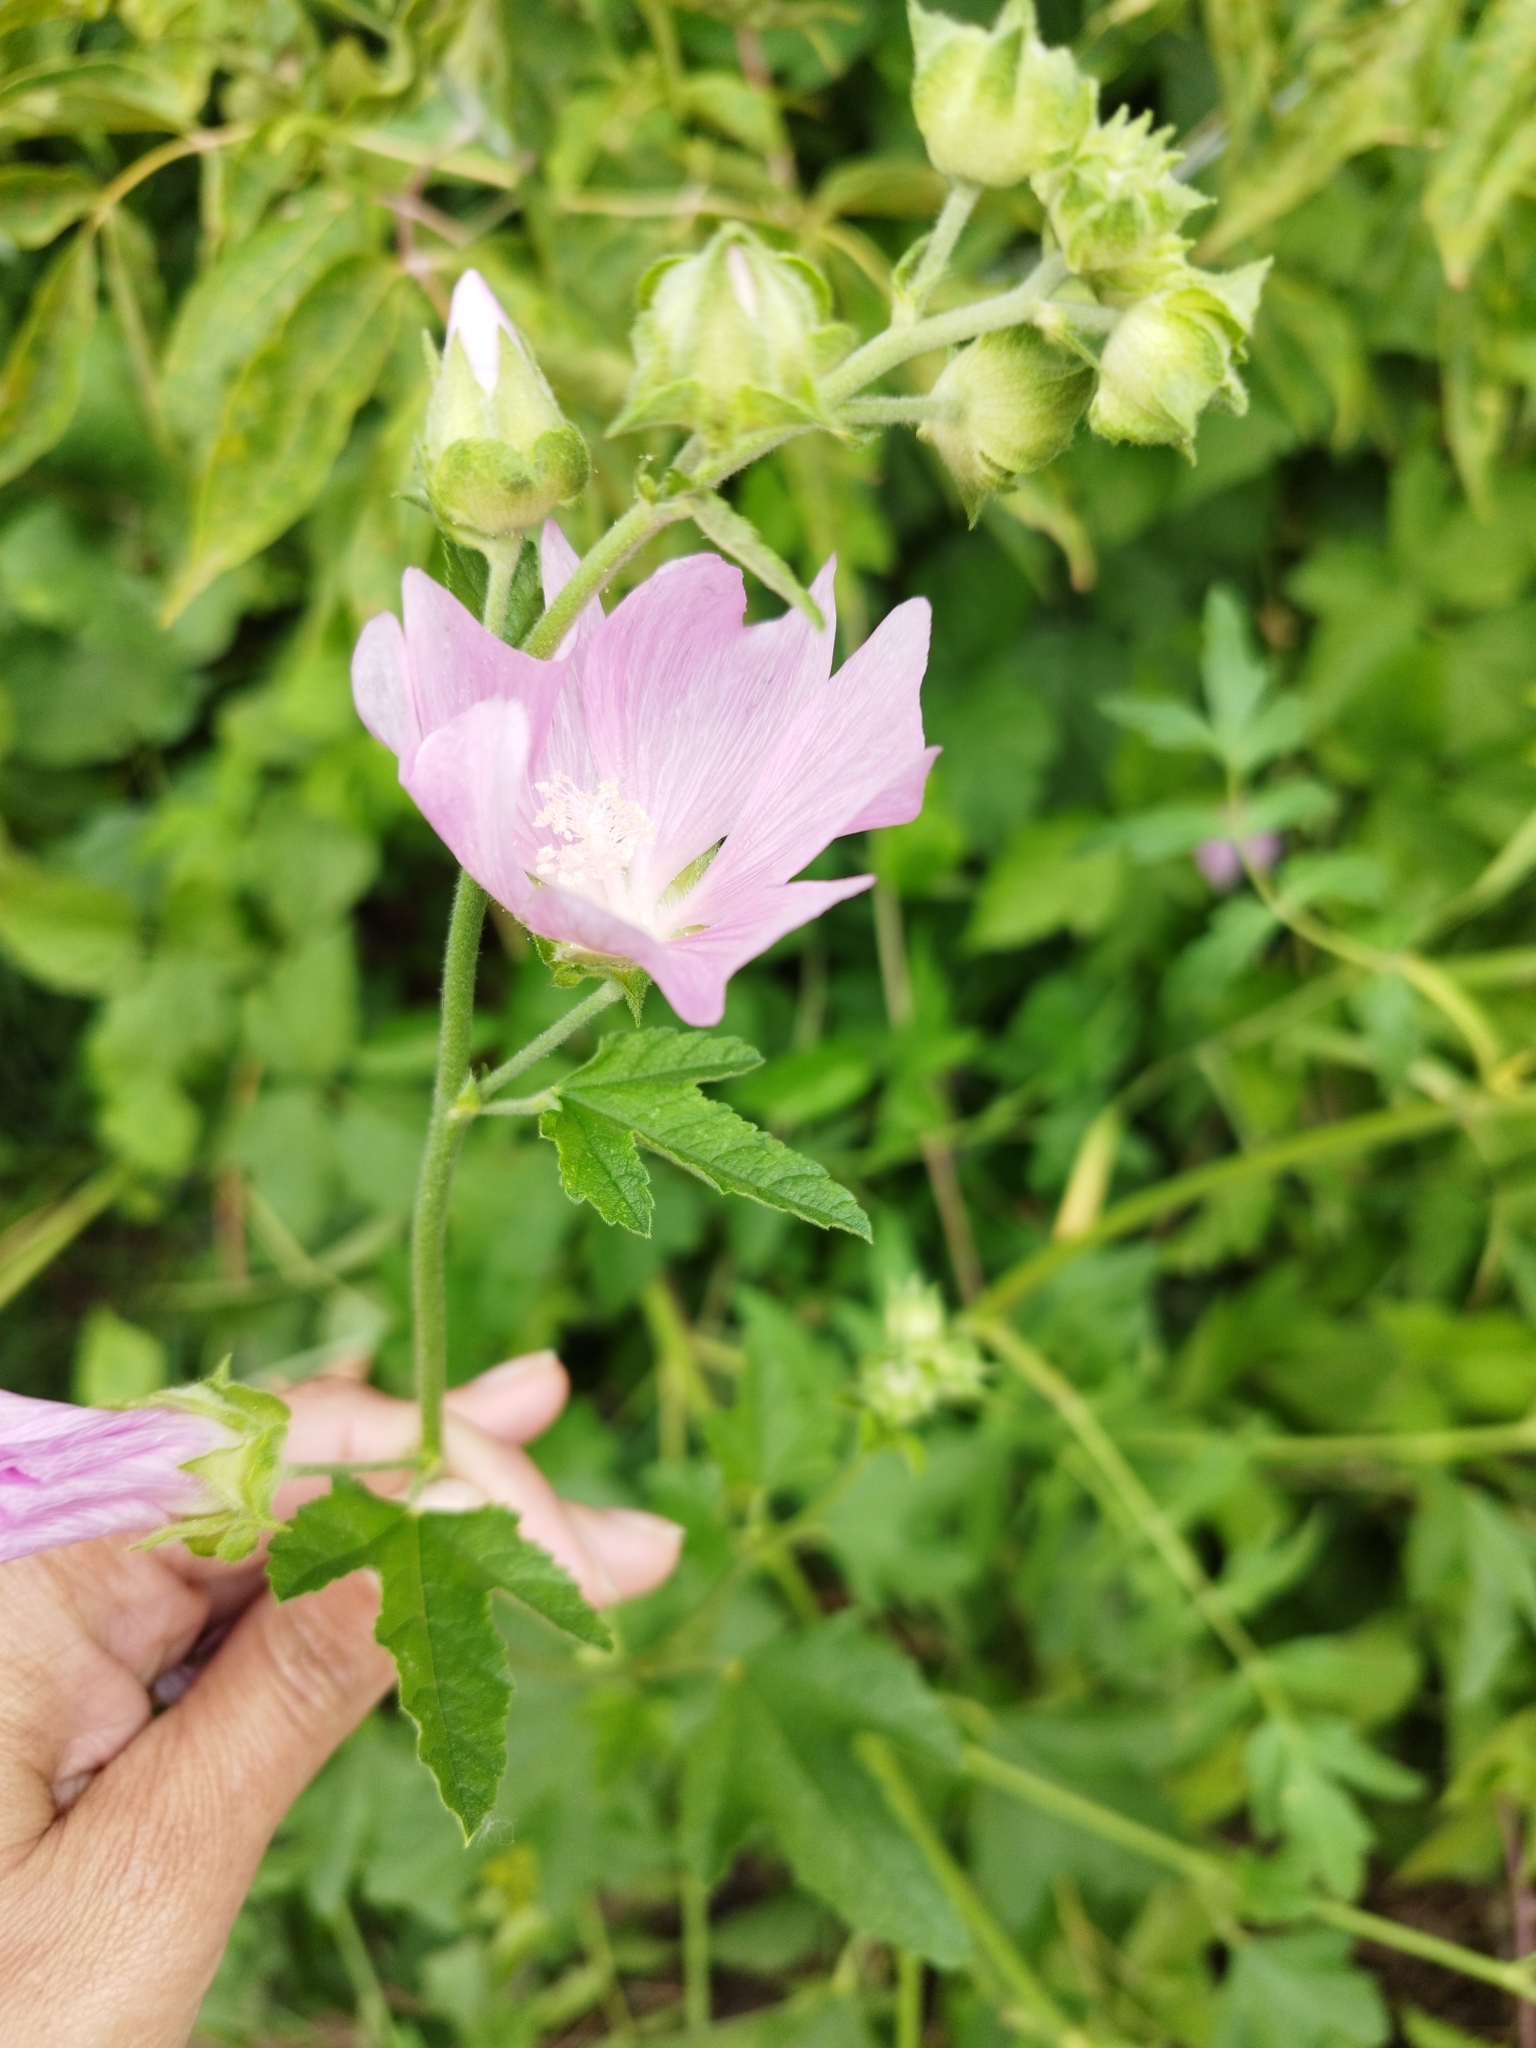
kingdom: Plantae
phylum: Tracheophyta
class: Magnoliopsida
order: Malvales
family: Malvaceae
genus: Malva
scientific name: Malva thuringiaca
